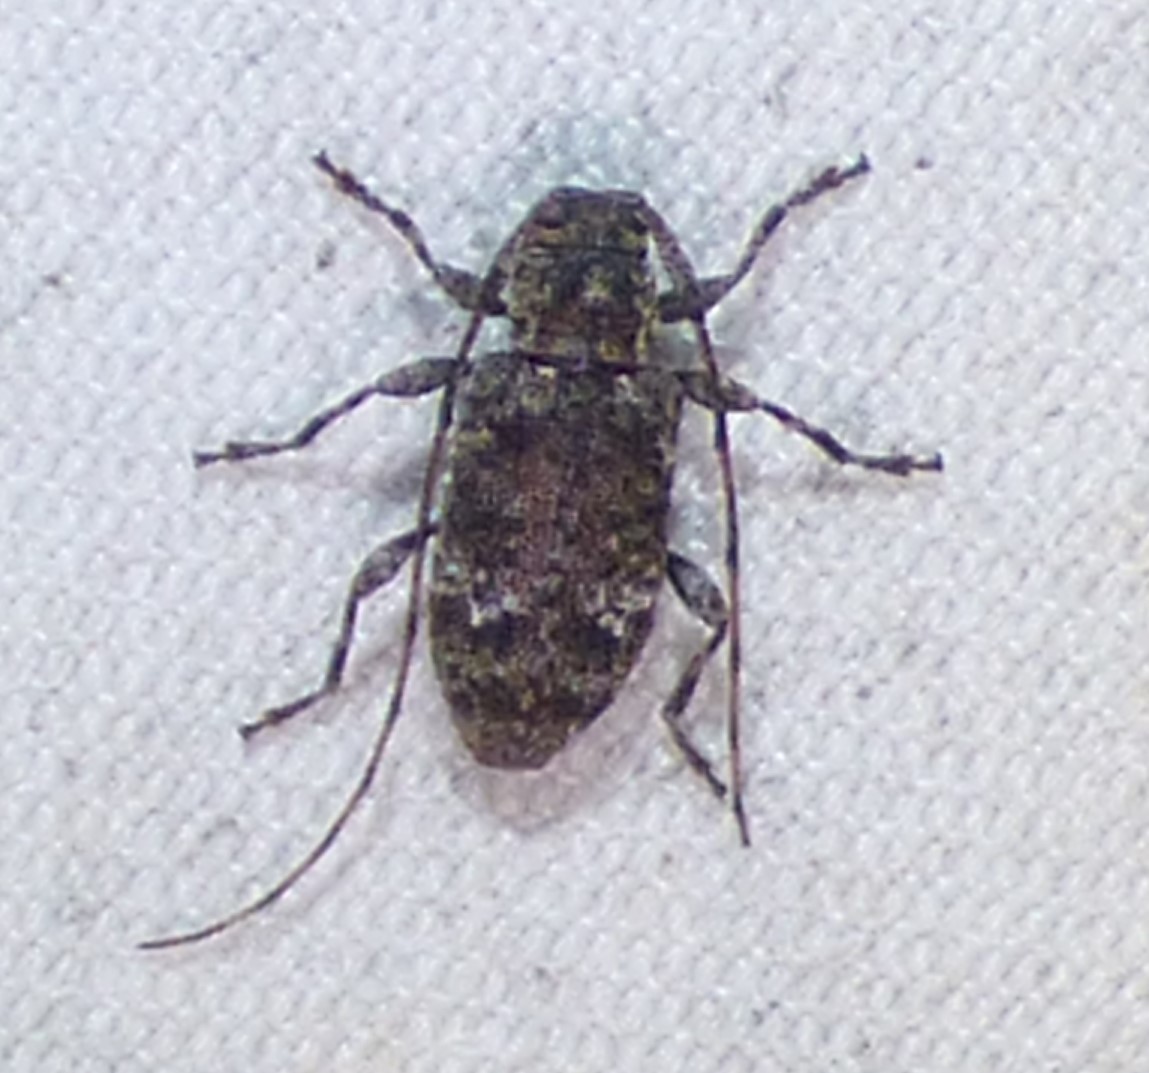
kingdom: Animalia
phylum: Arthropoda
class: Insecta
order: Coleoptera
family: Cerambycidae
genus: Sternidius
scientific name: Sternidius punctatus
